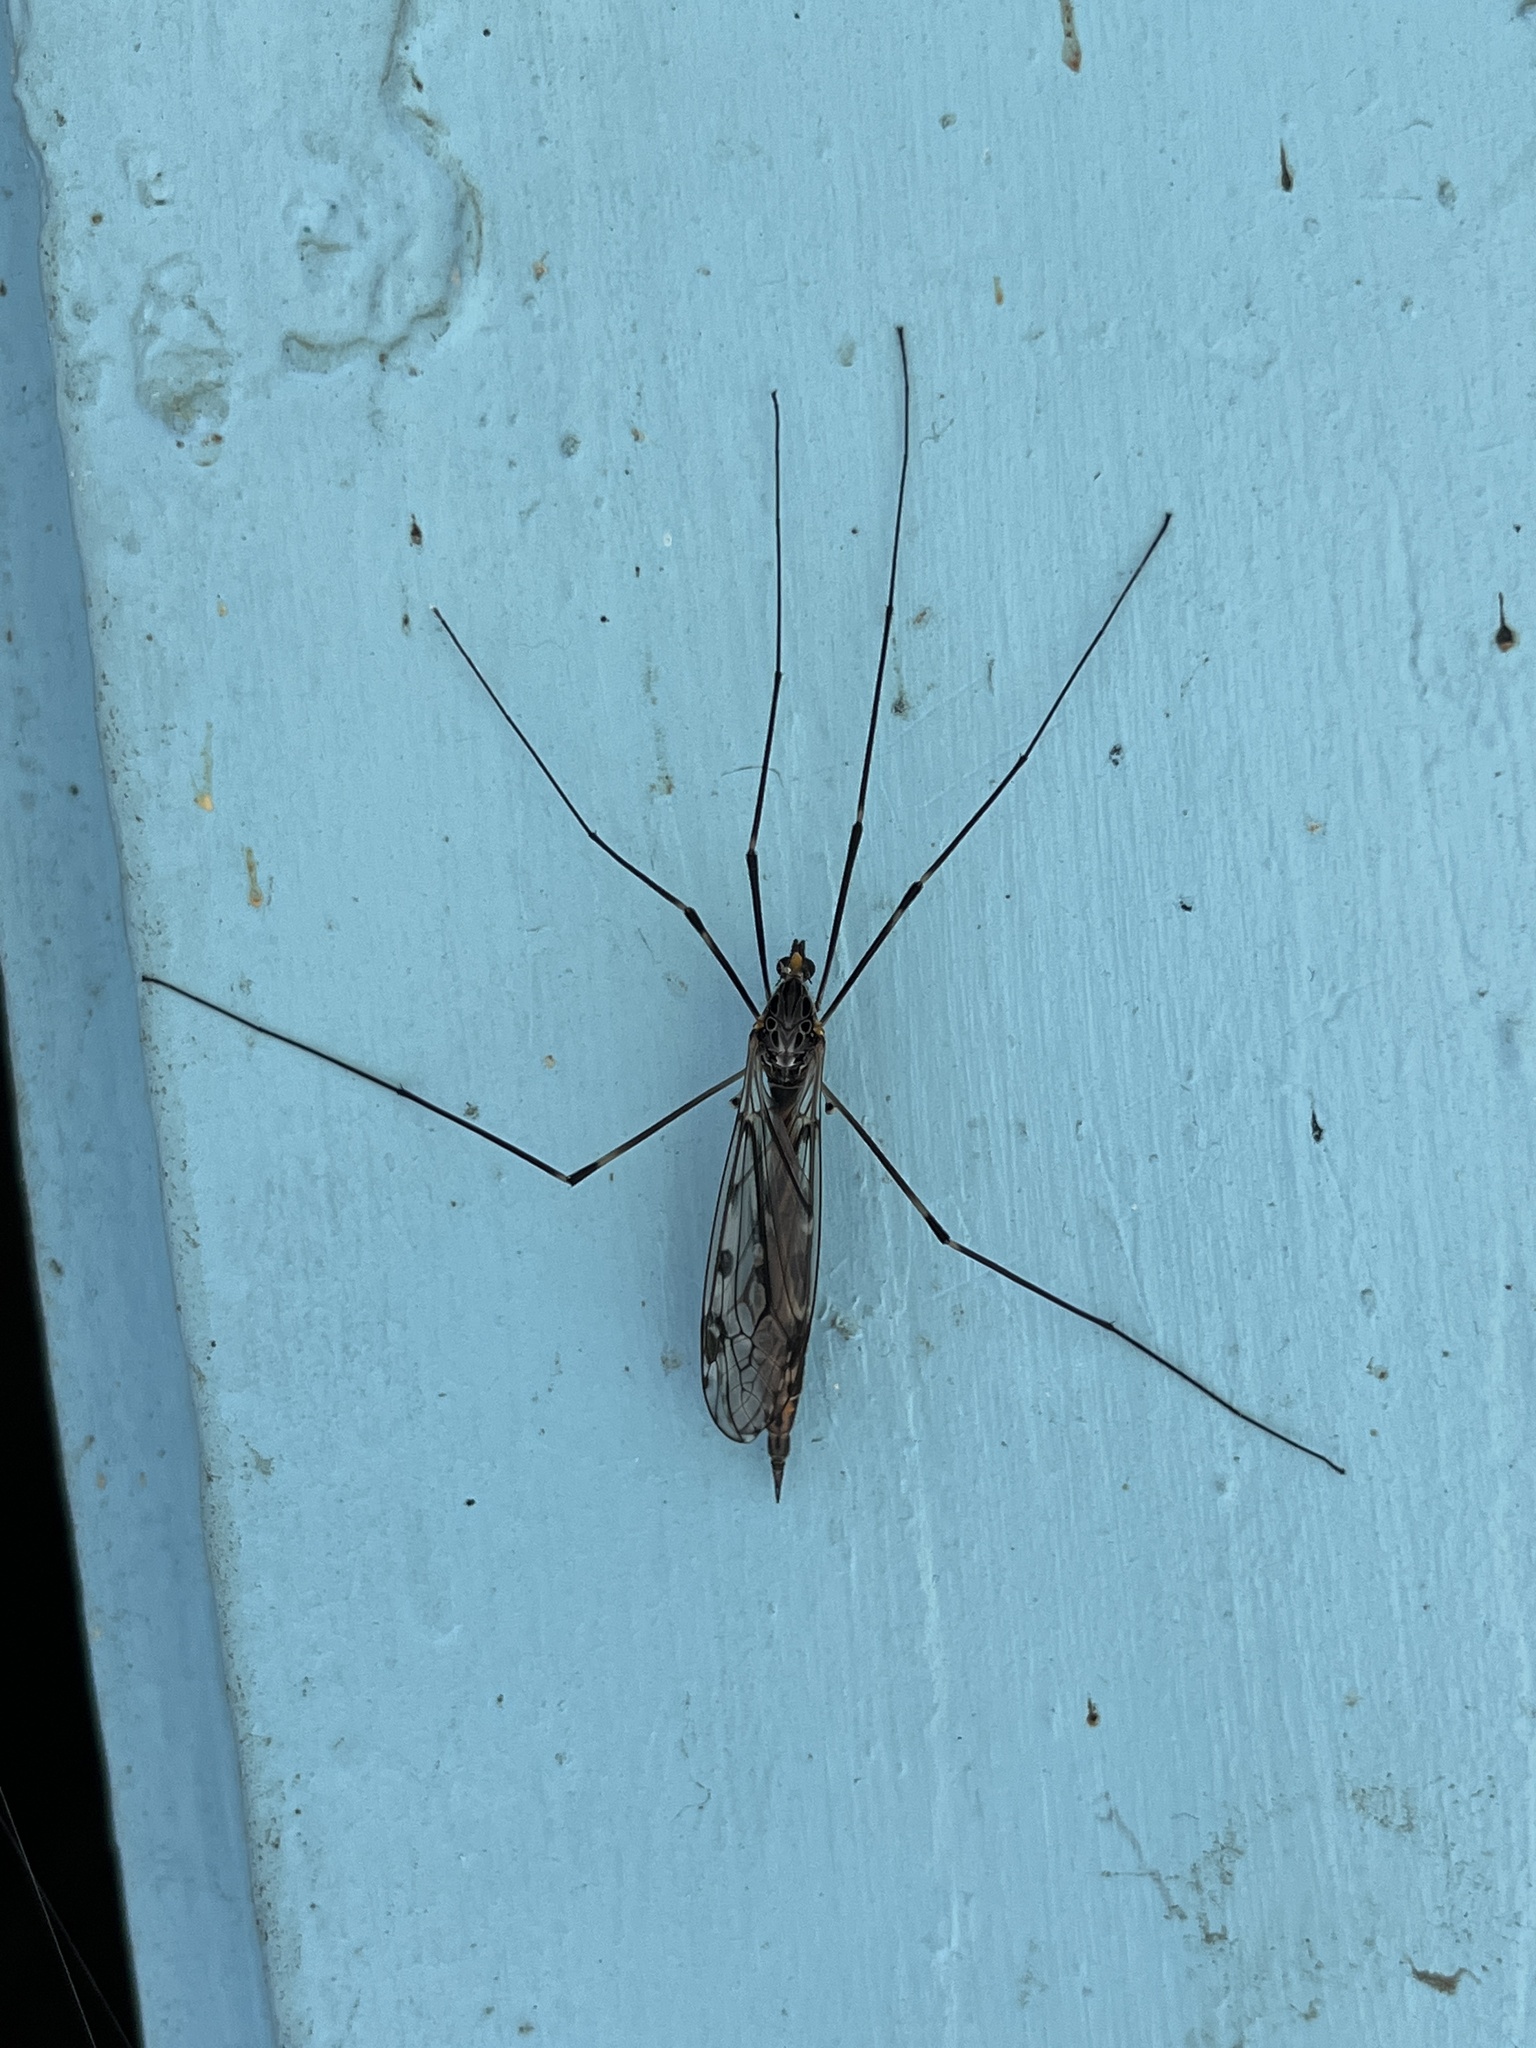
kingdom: Animalia
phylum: Arthropoda
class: Insecta
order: Diptera
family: Tipulidae
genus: Tipula
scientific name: Tipula abdominalis
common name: Giant crane fly
